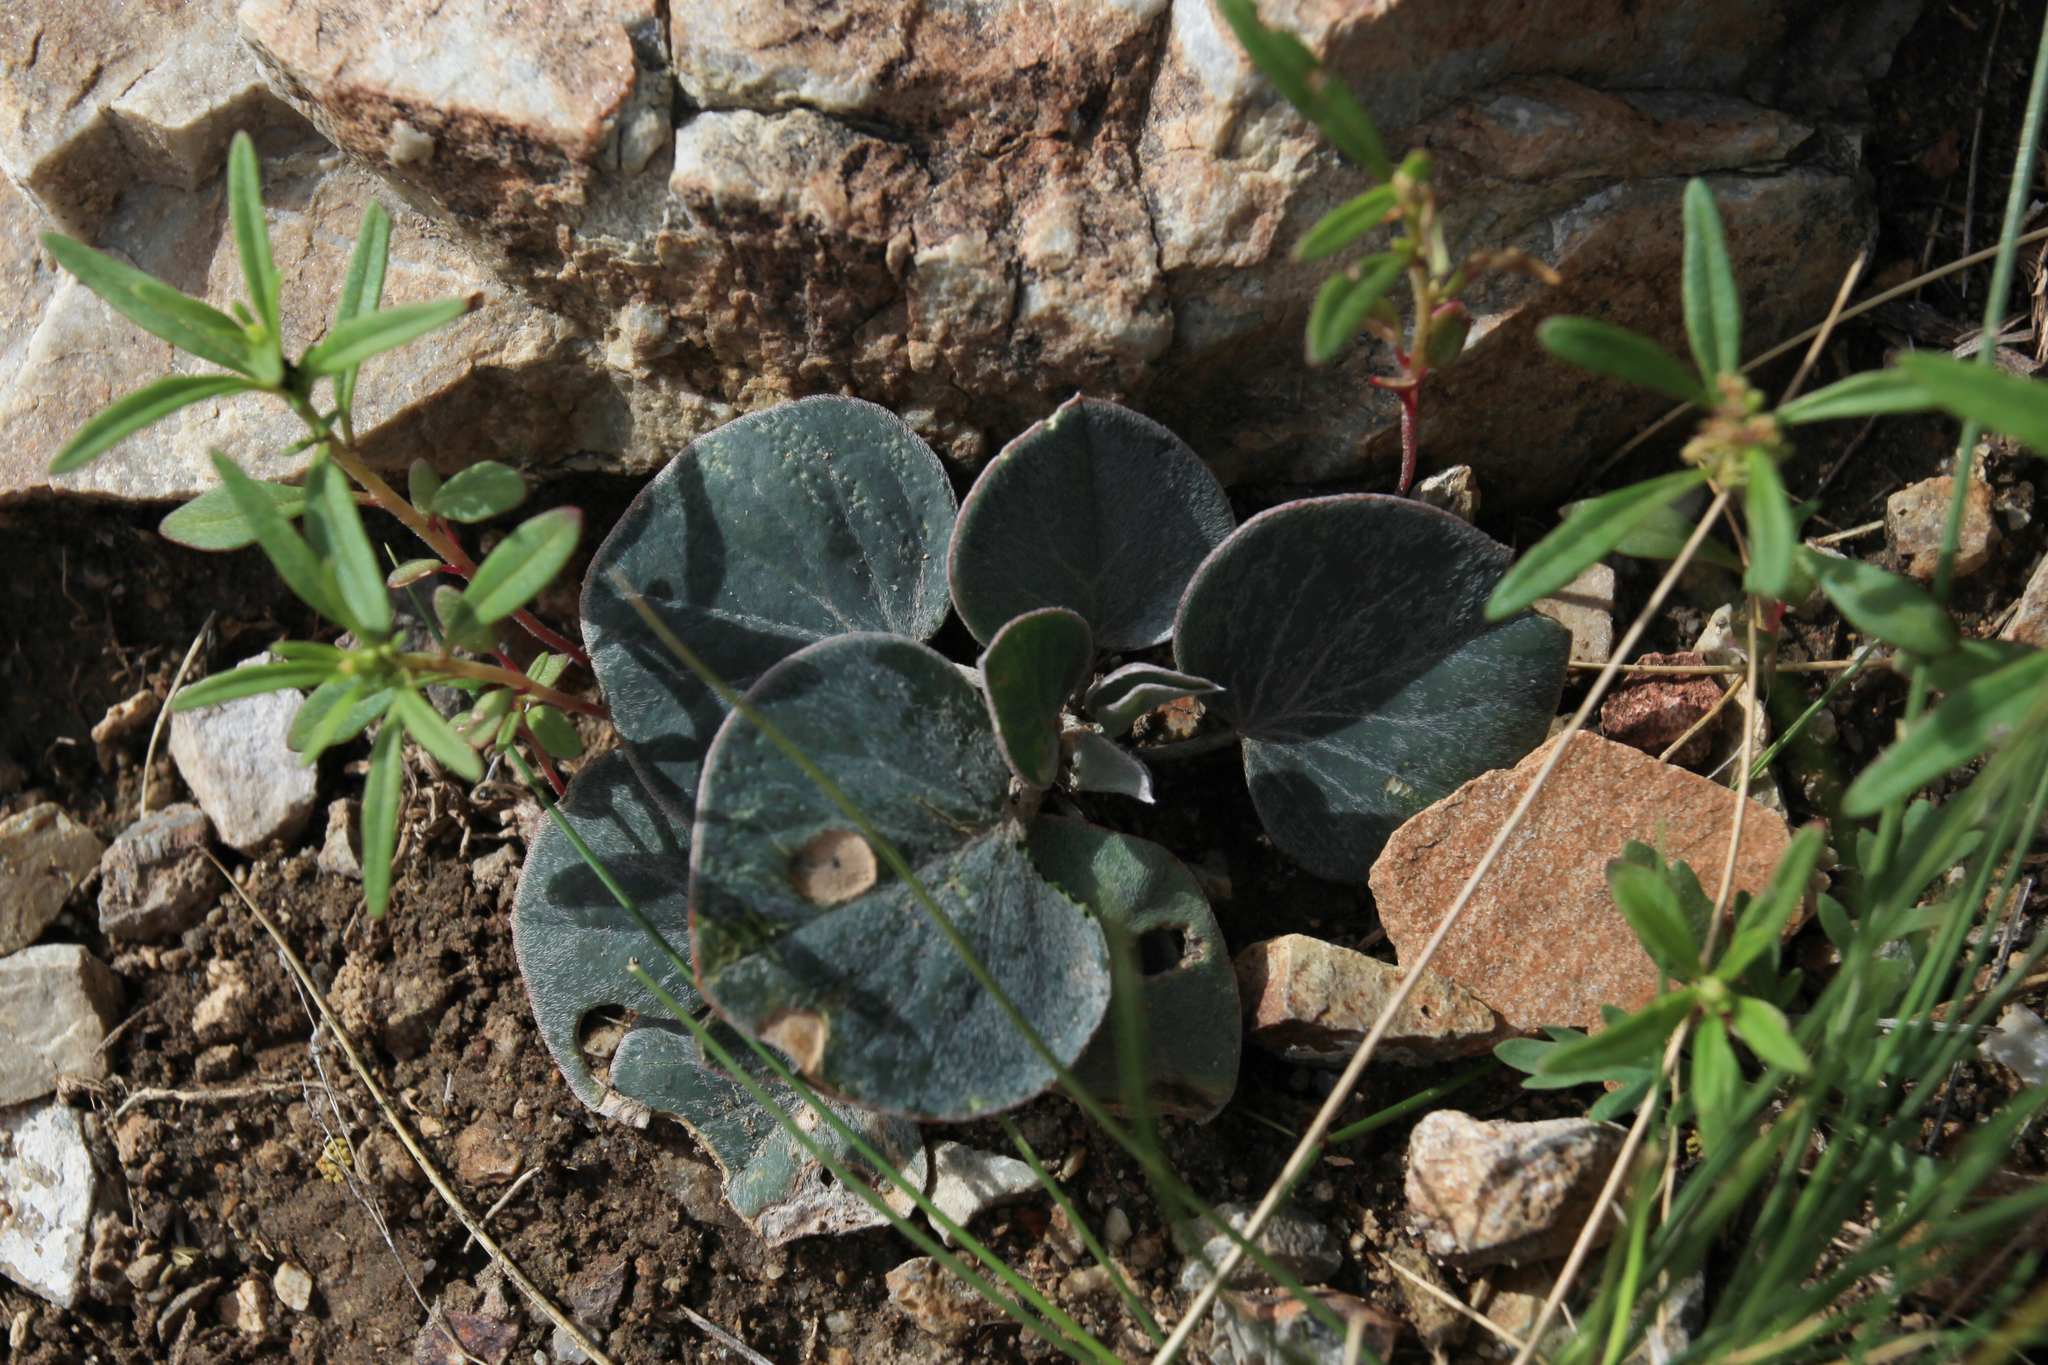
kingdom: Plantae
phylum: Tracheophyta
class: Magnoliopsida
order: Fabales
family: Fabaceae
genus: Gueldenstaedtia
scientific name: Gueldenstaedtia monophylla
